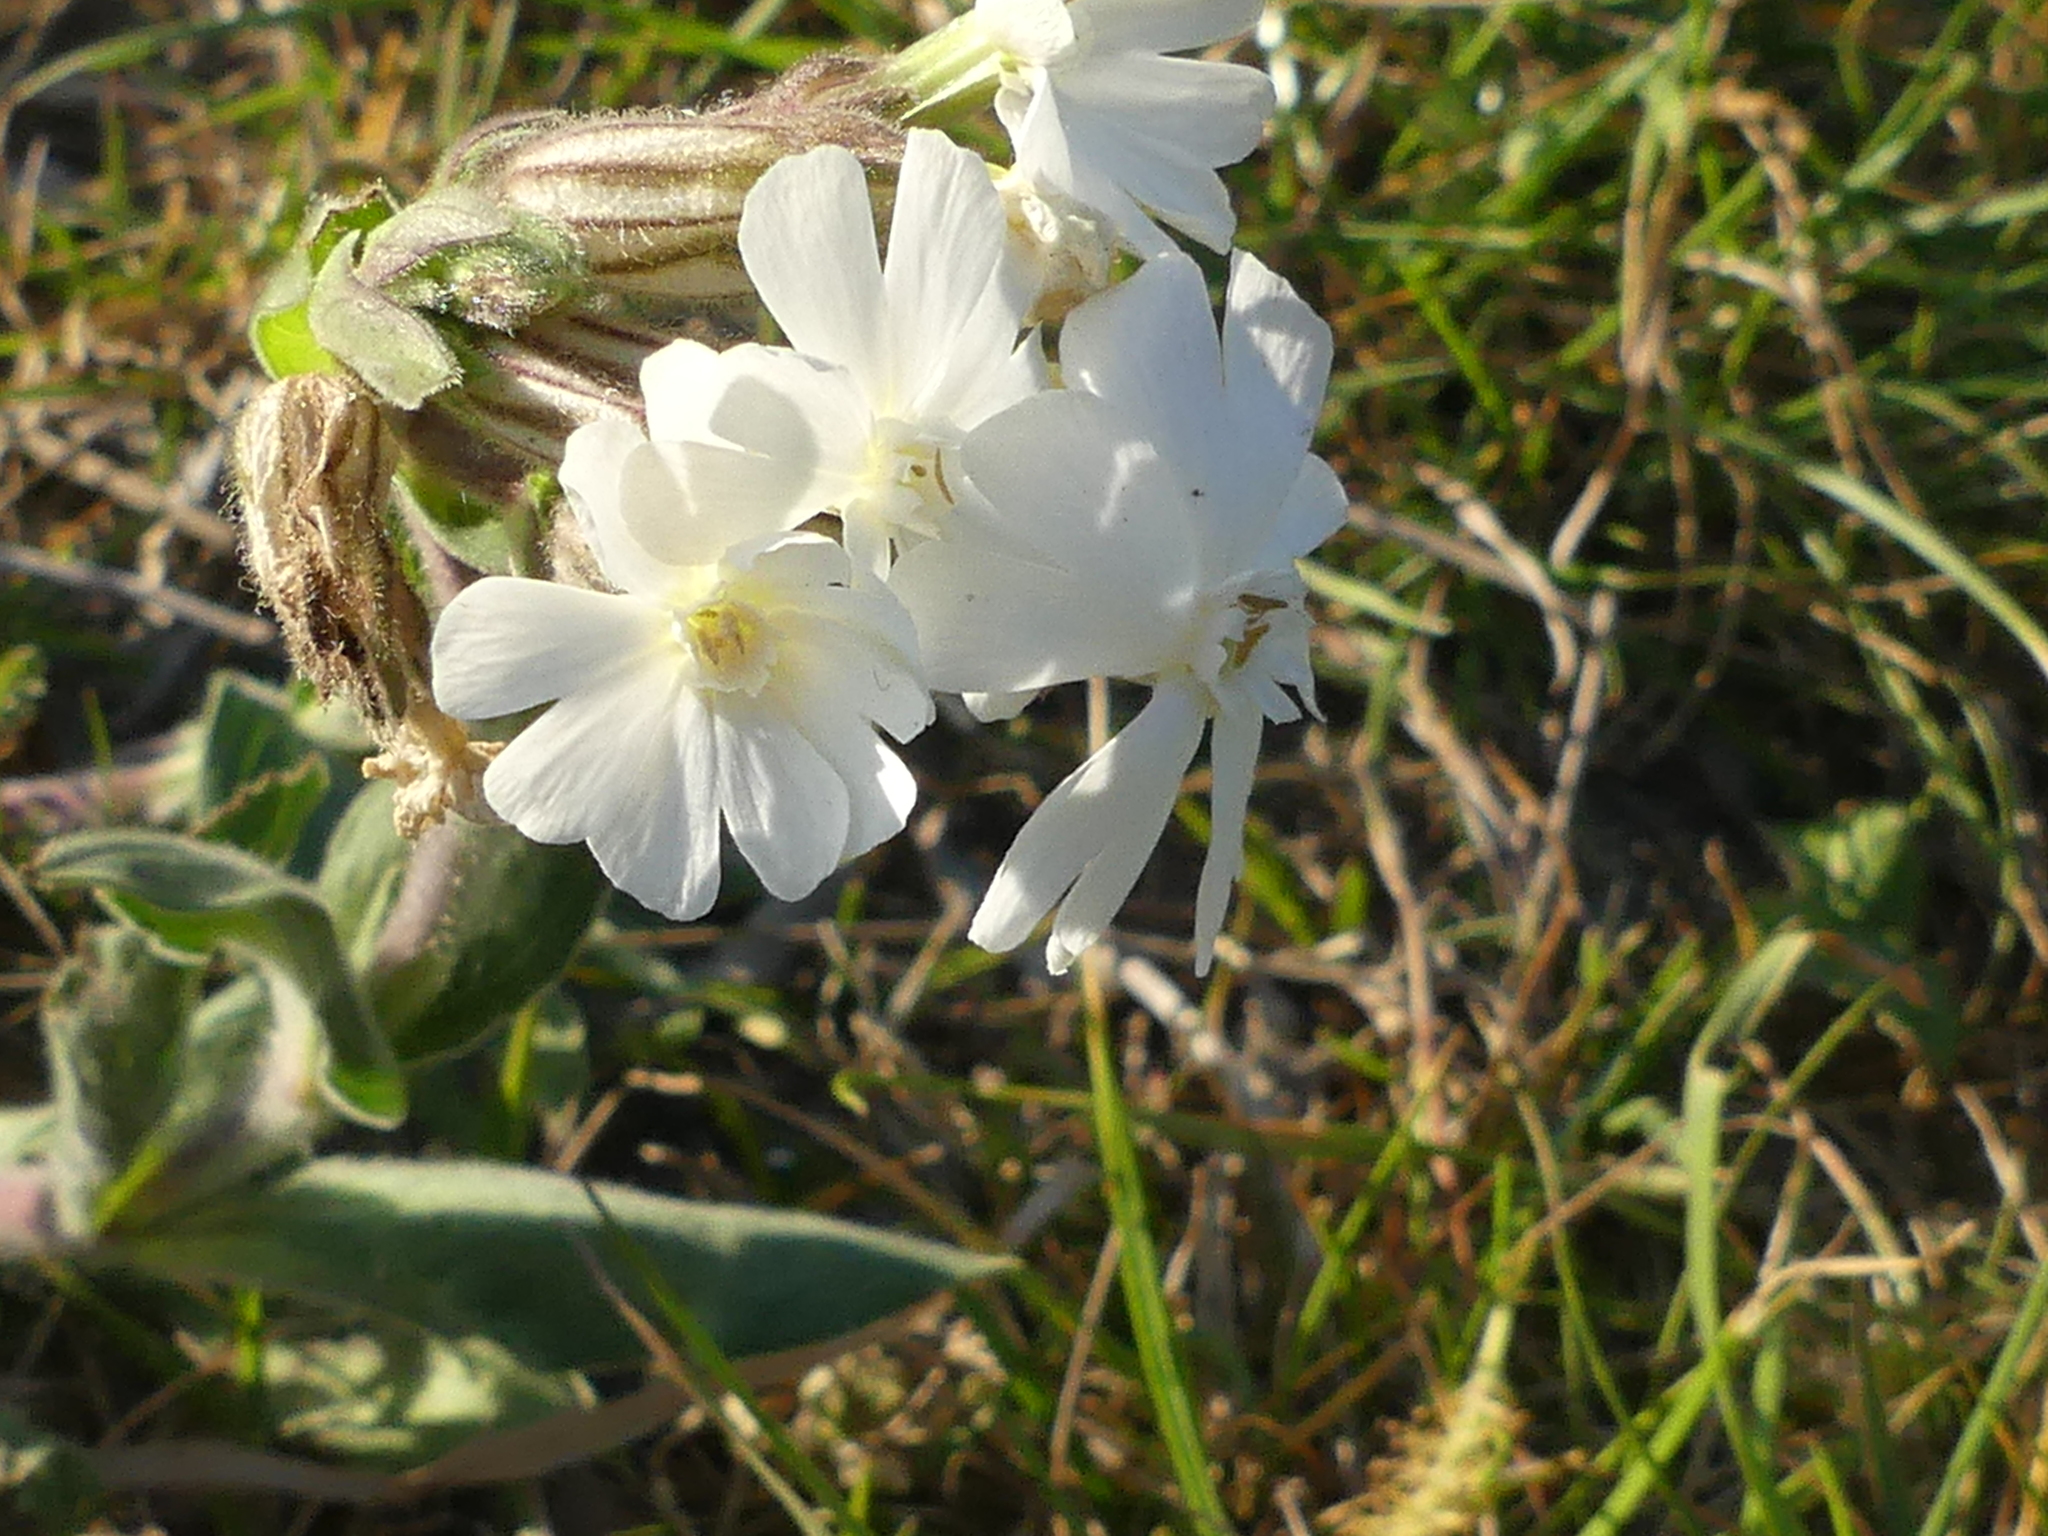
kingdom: Plantae
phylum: Tracheophyta
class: Magnoliopsida
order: Caryophyllales
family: Caryophyllaceae
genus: Silene
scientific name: Silene latifolia
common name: White campion
